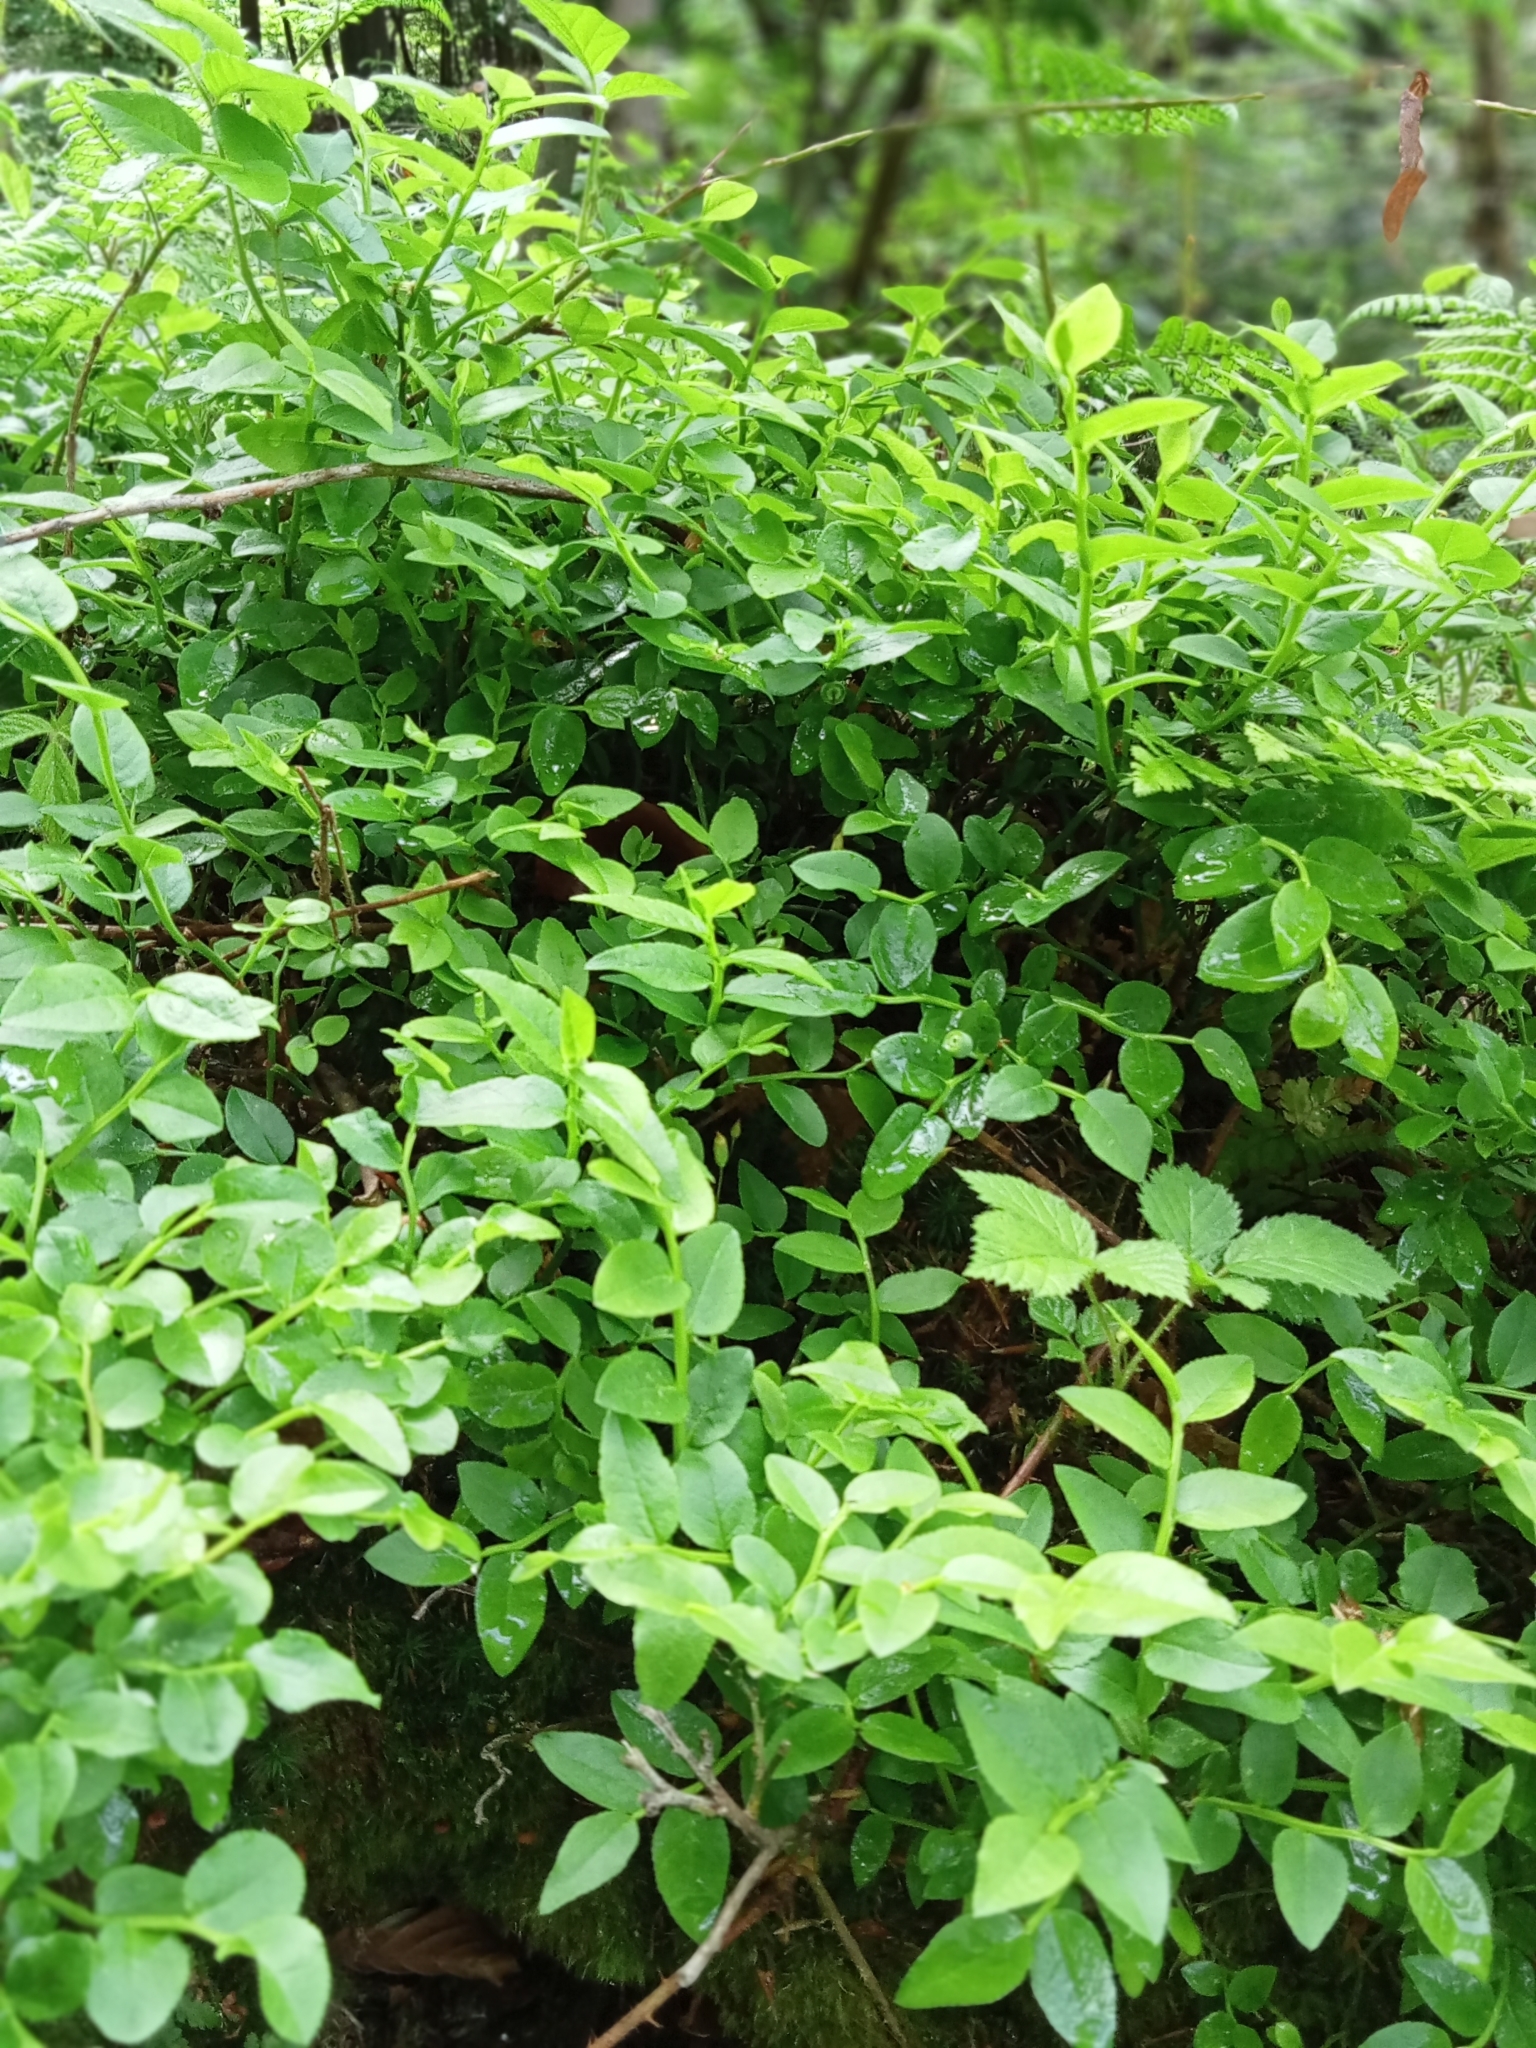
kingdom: Plantae
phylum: Tracheophyta
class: Magnoliopsida
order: Ericales
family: Ericaceae
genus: Vaccinium
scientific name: Vaccinium myrtillus
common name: Bilberry
